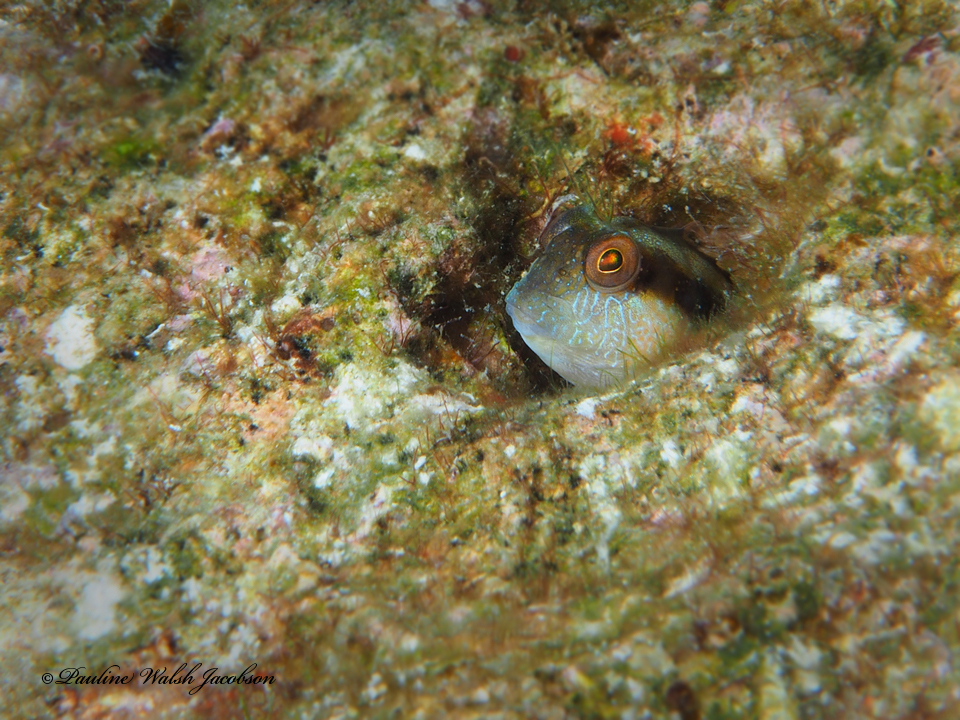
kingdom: Animalia
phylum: Chordata
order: Perciformes
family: Blenniidae
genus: Parablennius
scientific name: Parablennius marmoreus
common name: Seaweed blenny
